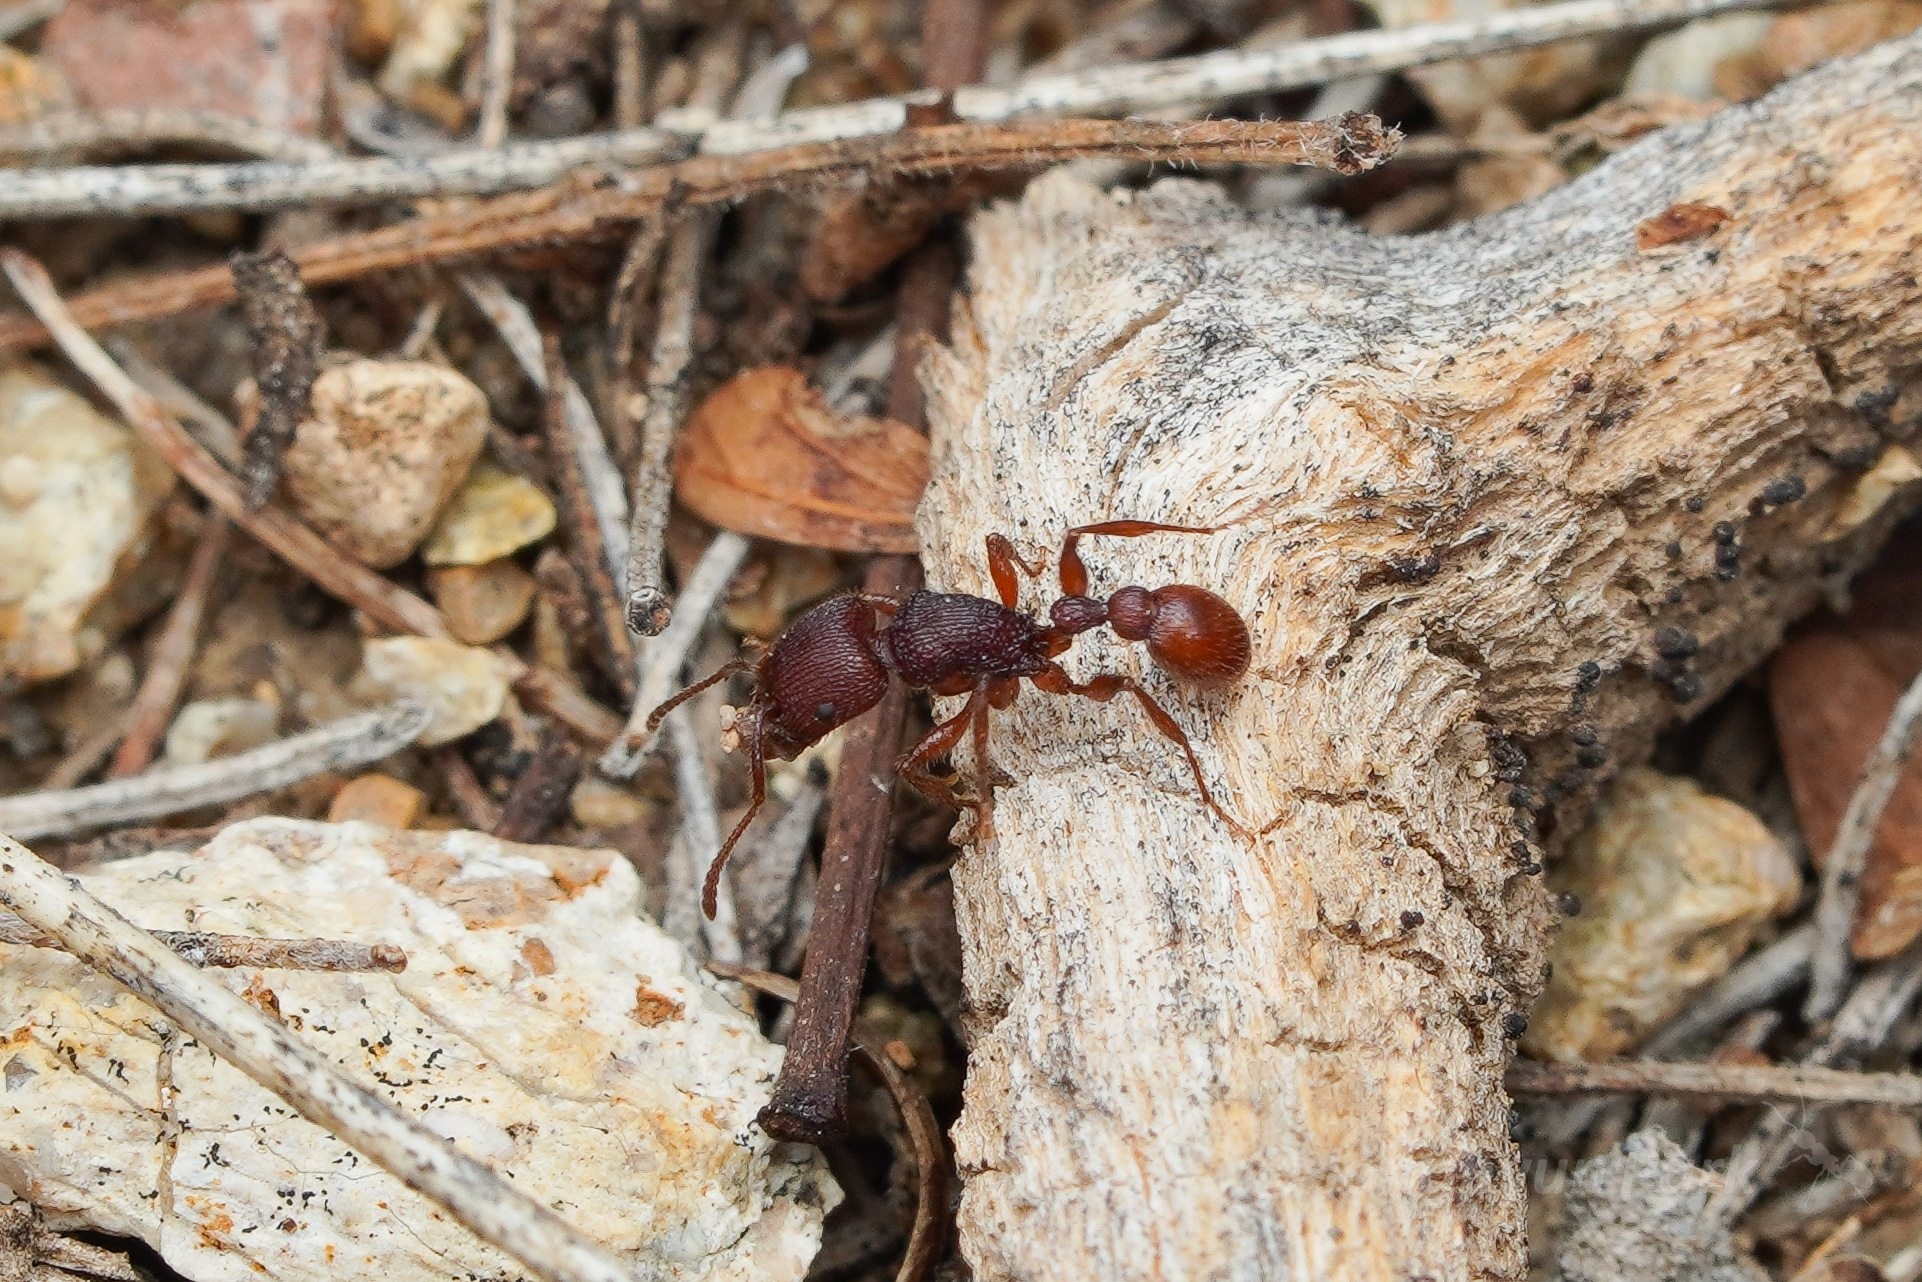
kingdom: Animalia
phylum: Arthropoda
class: Insecta
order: Hymenoptera
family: Formicidae
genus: Pogonomyrmex
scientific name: Pogonomyrmex imberbiculus
